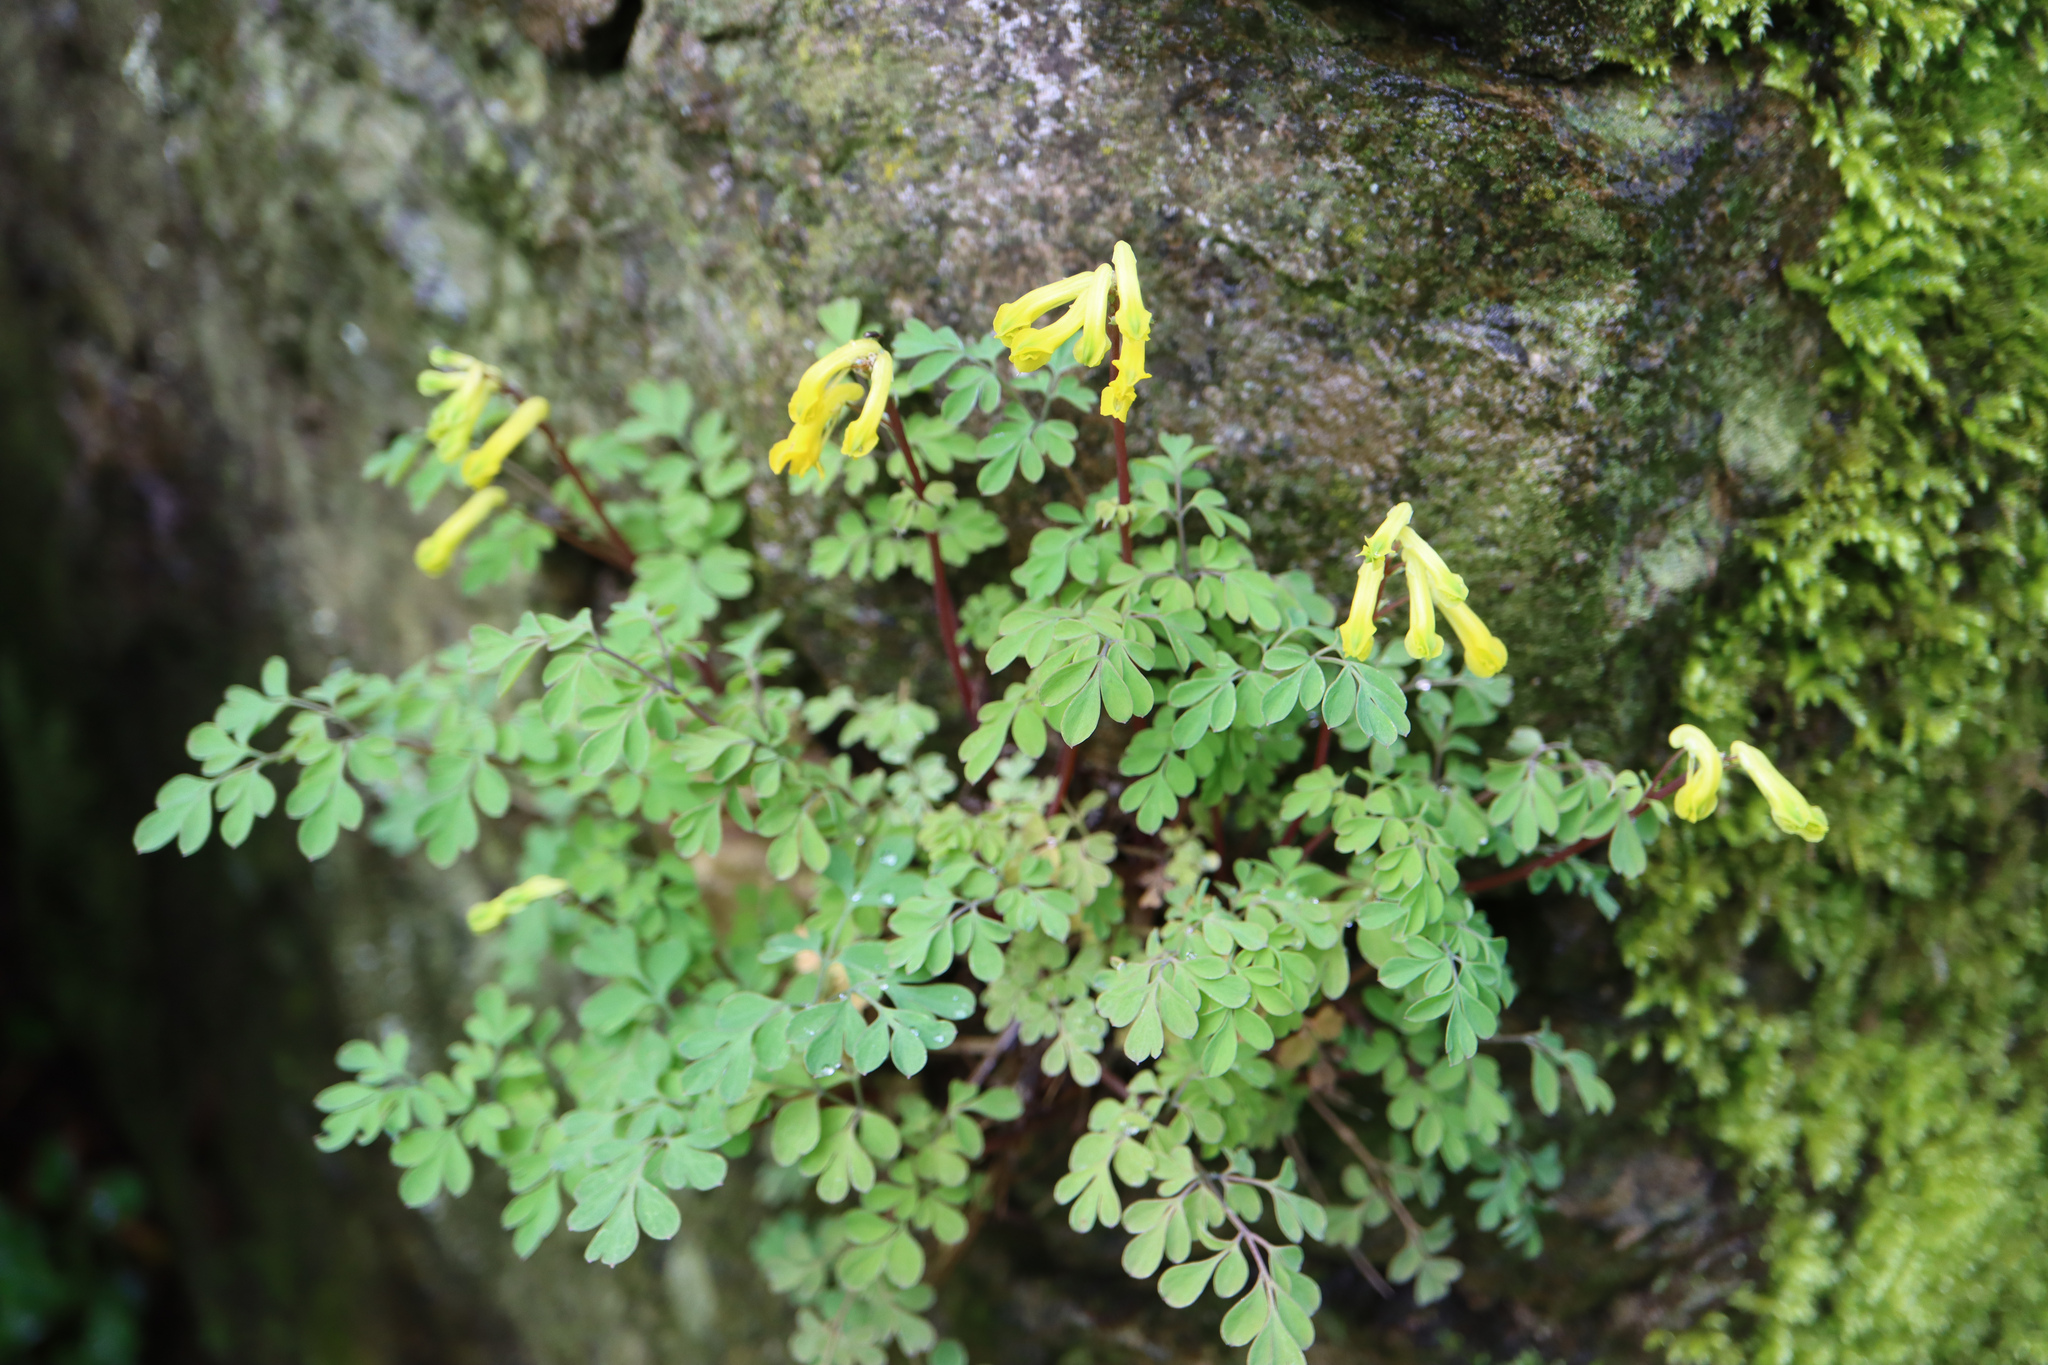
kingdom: Plantae
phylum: Tracheophyta
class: Magnoliopsida
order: Ranunculales
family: Papaveraceae
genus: Pseudofumaria
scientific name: Pseudofumaria lutea
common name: Yellow corydalis
